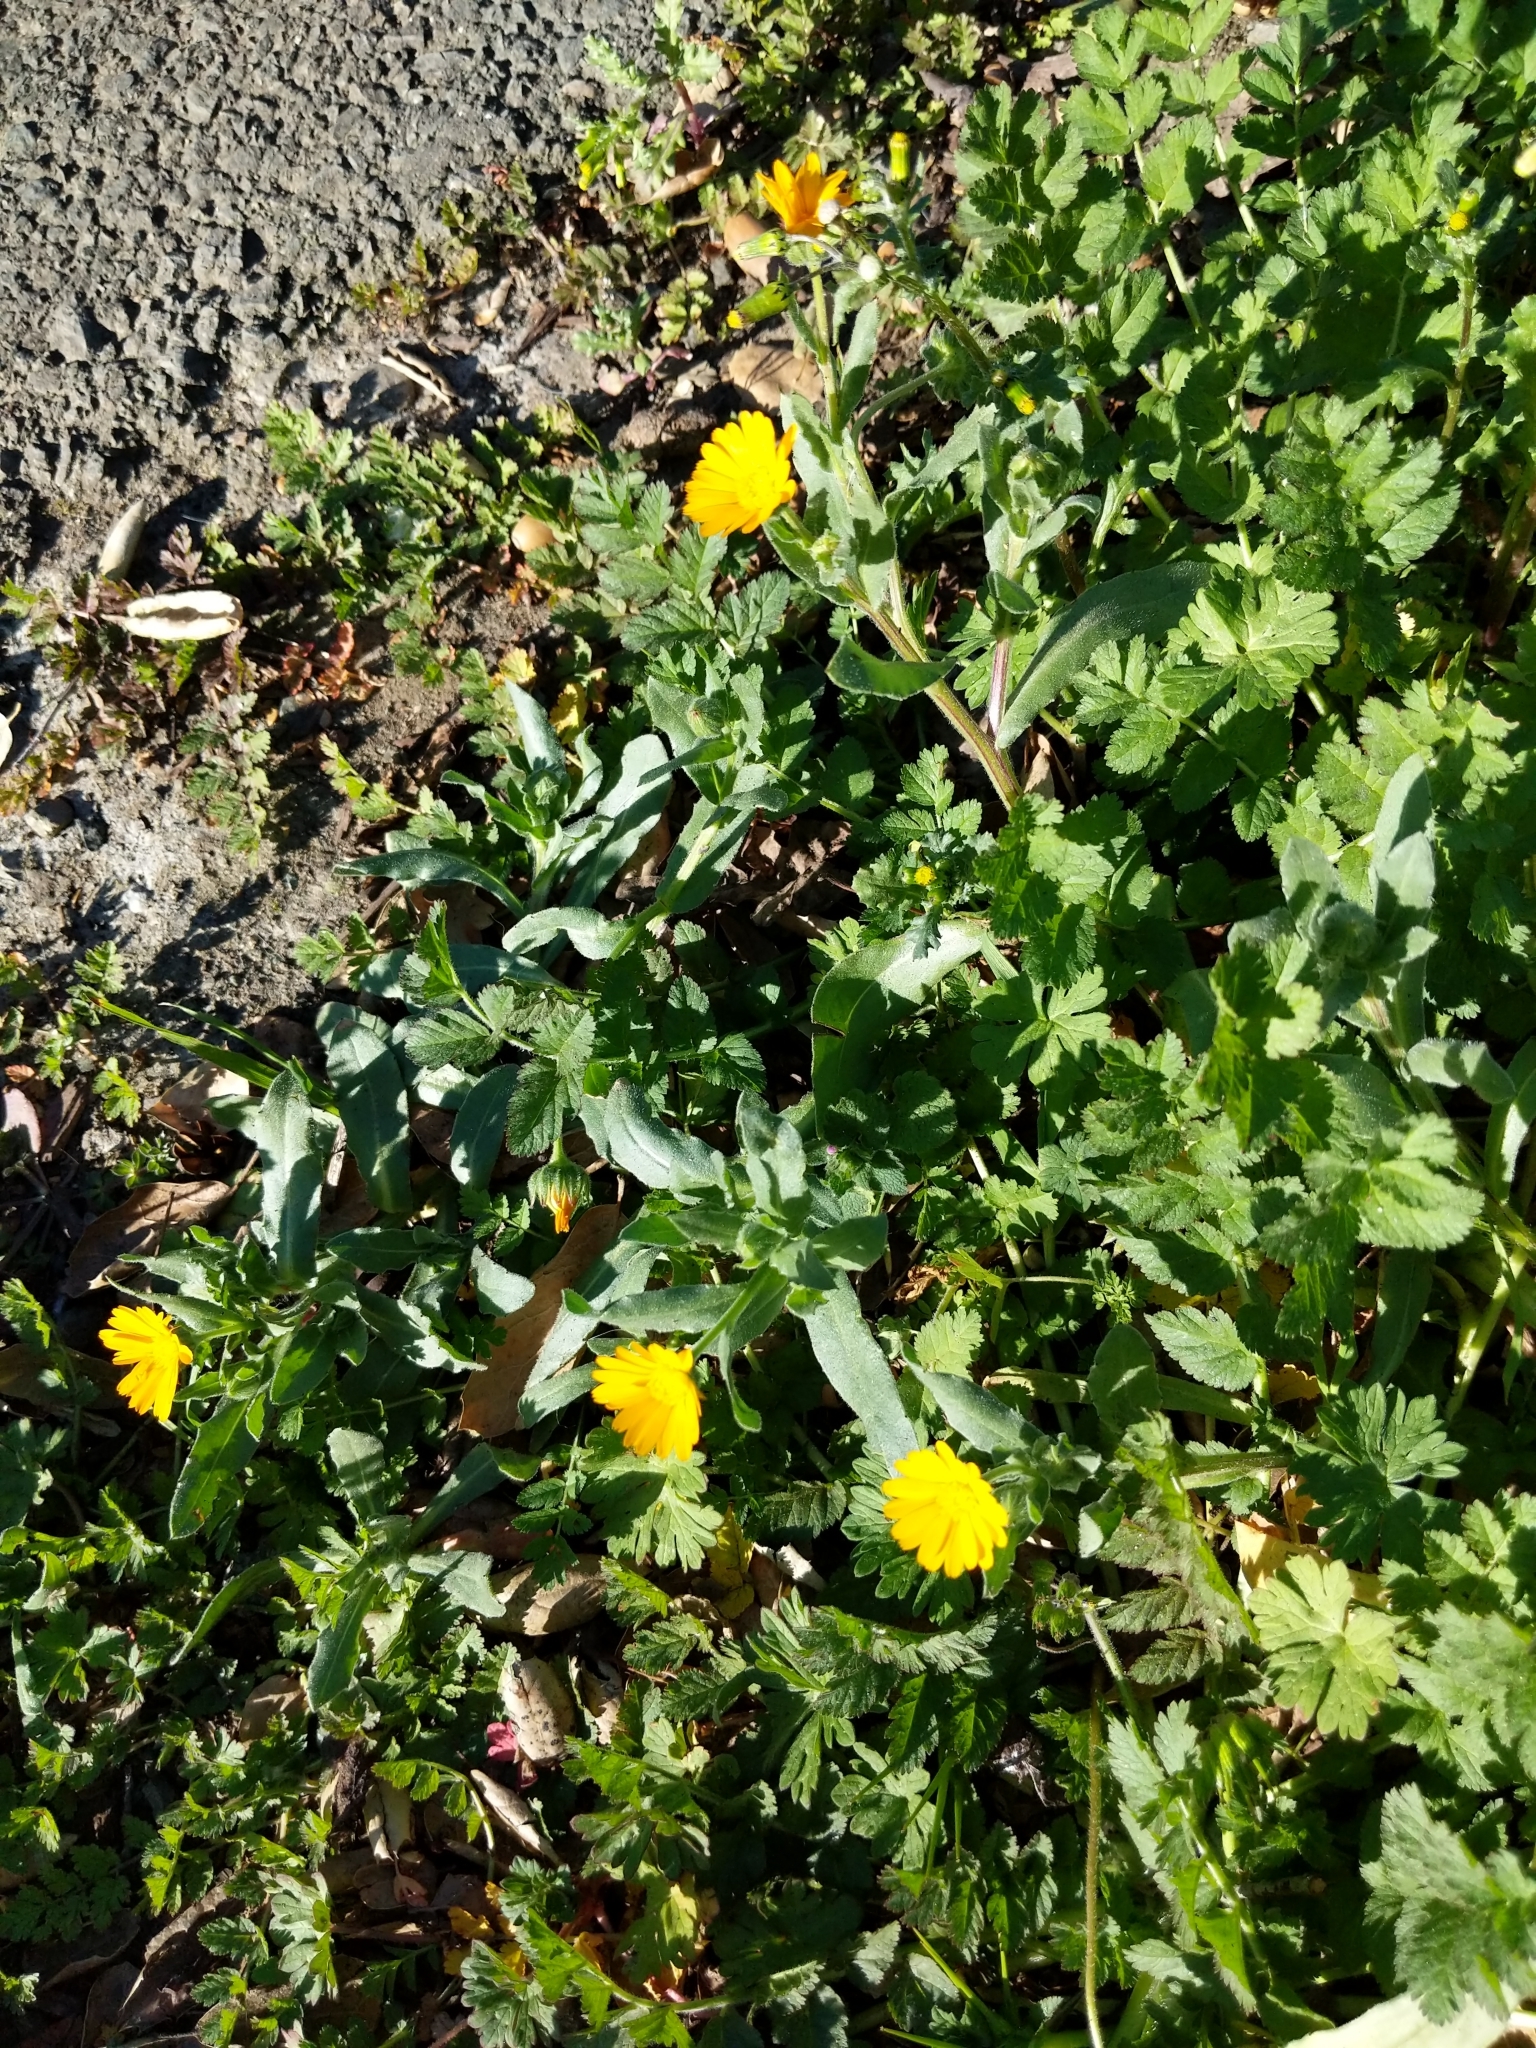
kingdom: Plantae
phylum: Tracheophyta
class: Magnoliopsida
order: Asterales
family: Asteraceae
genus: Calendula
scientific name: Calendula arvensis
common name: Field marigold
